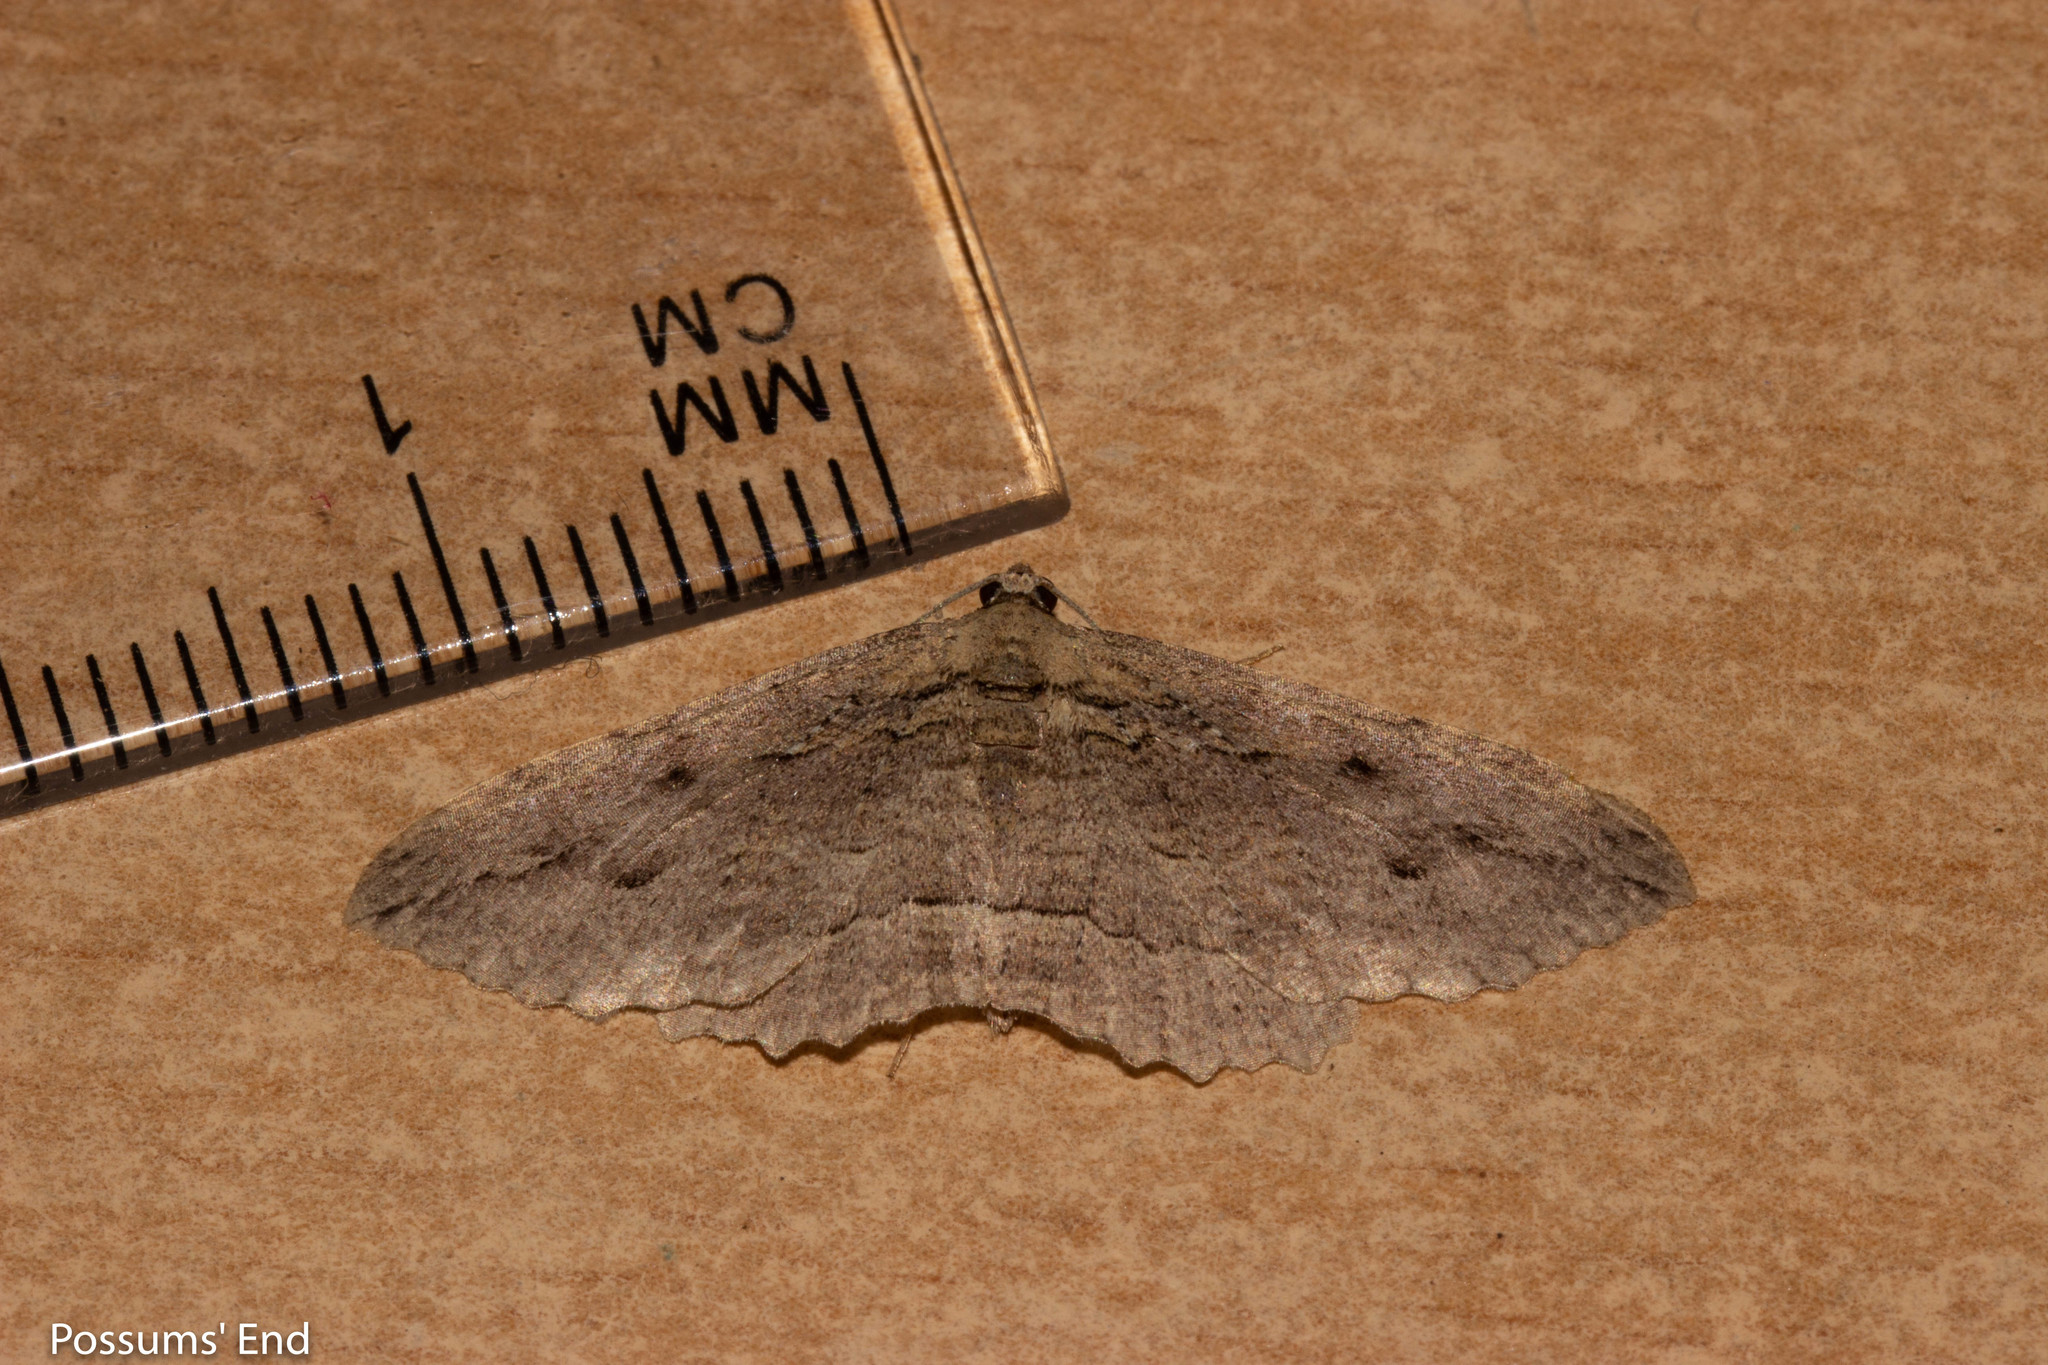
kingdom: Animalia
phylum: Arthropoda
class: Insecta
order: Lepidoptera
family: Geometridae
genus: Austrocidaria
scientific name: Austrocidaria anguligera
